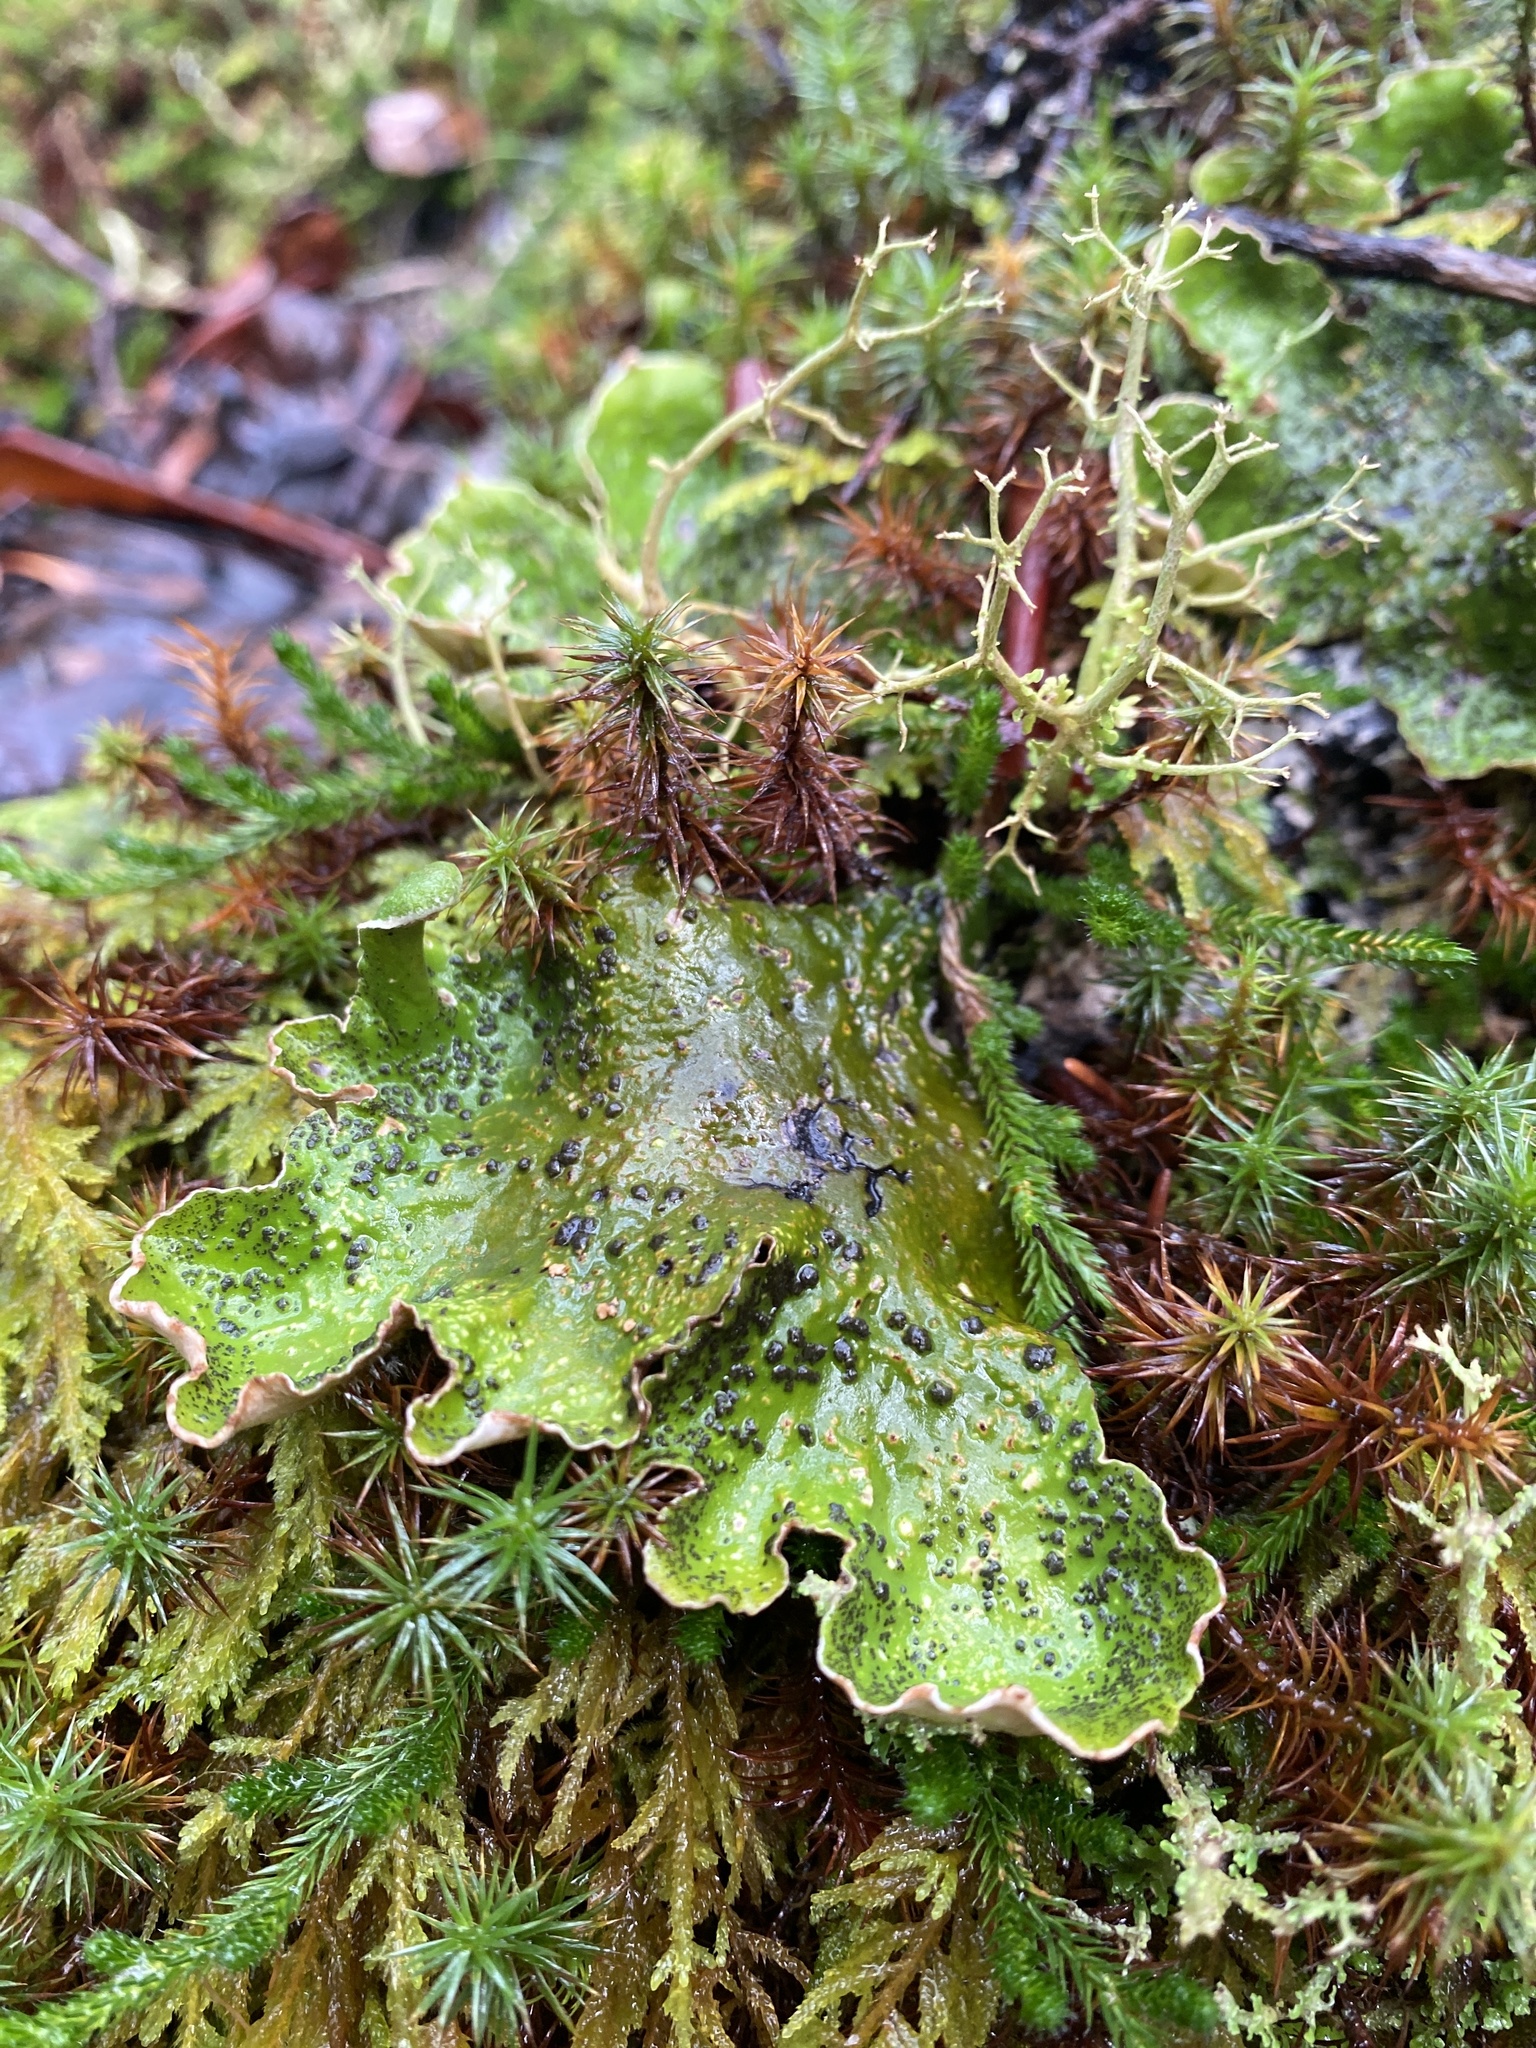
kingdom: Fungi
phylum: Ascomycota
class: Lecanoromycetes
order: Peltigerales
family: Peltigeraceae
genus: Peltigera
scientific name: Peltigera aphthosa
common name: Common freckle pelt lichen
